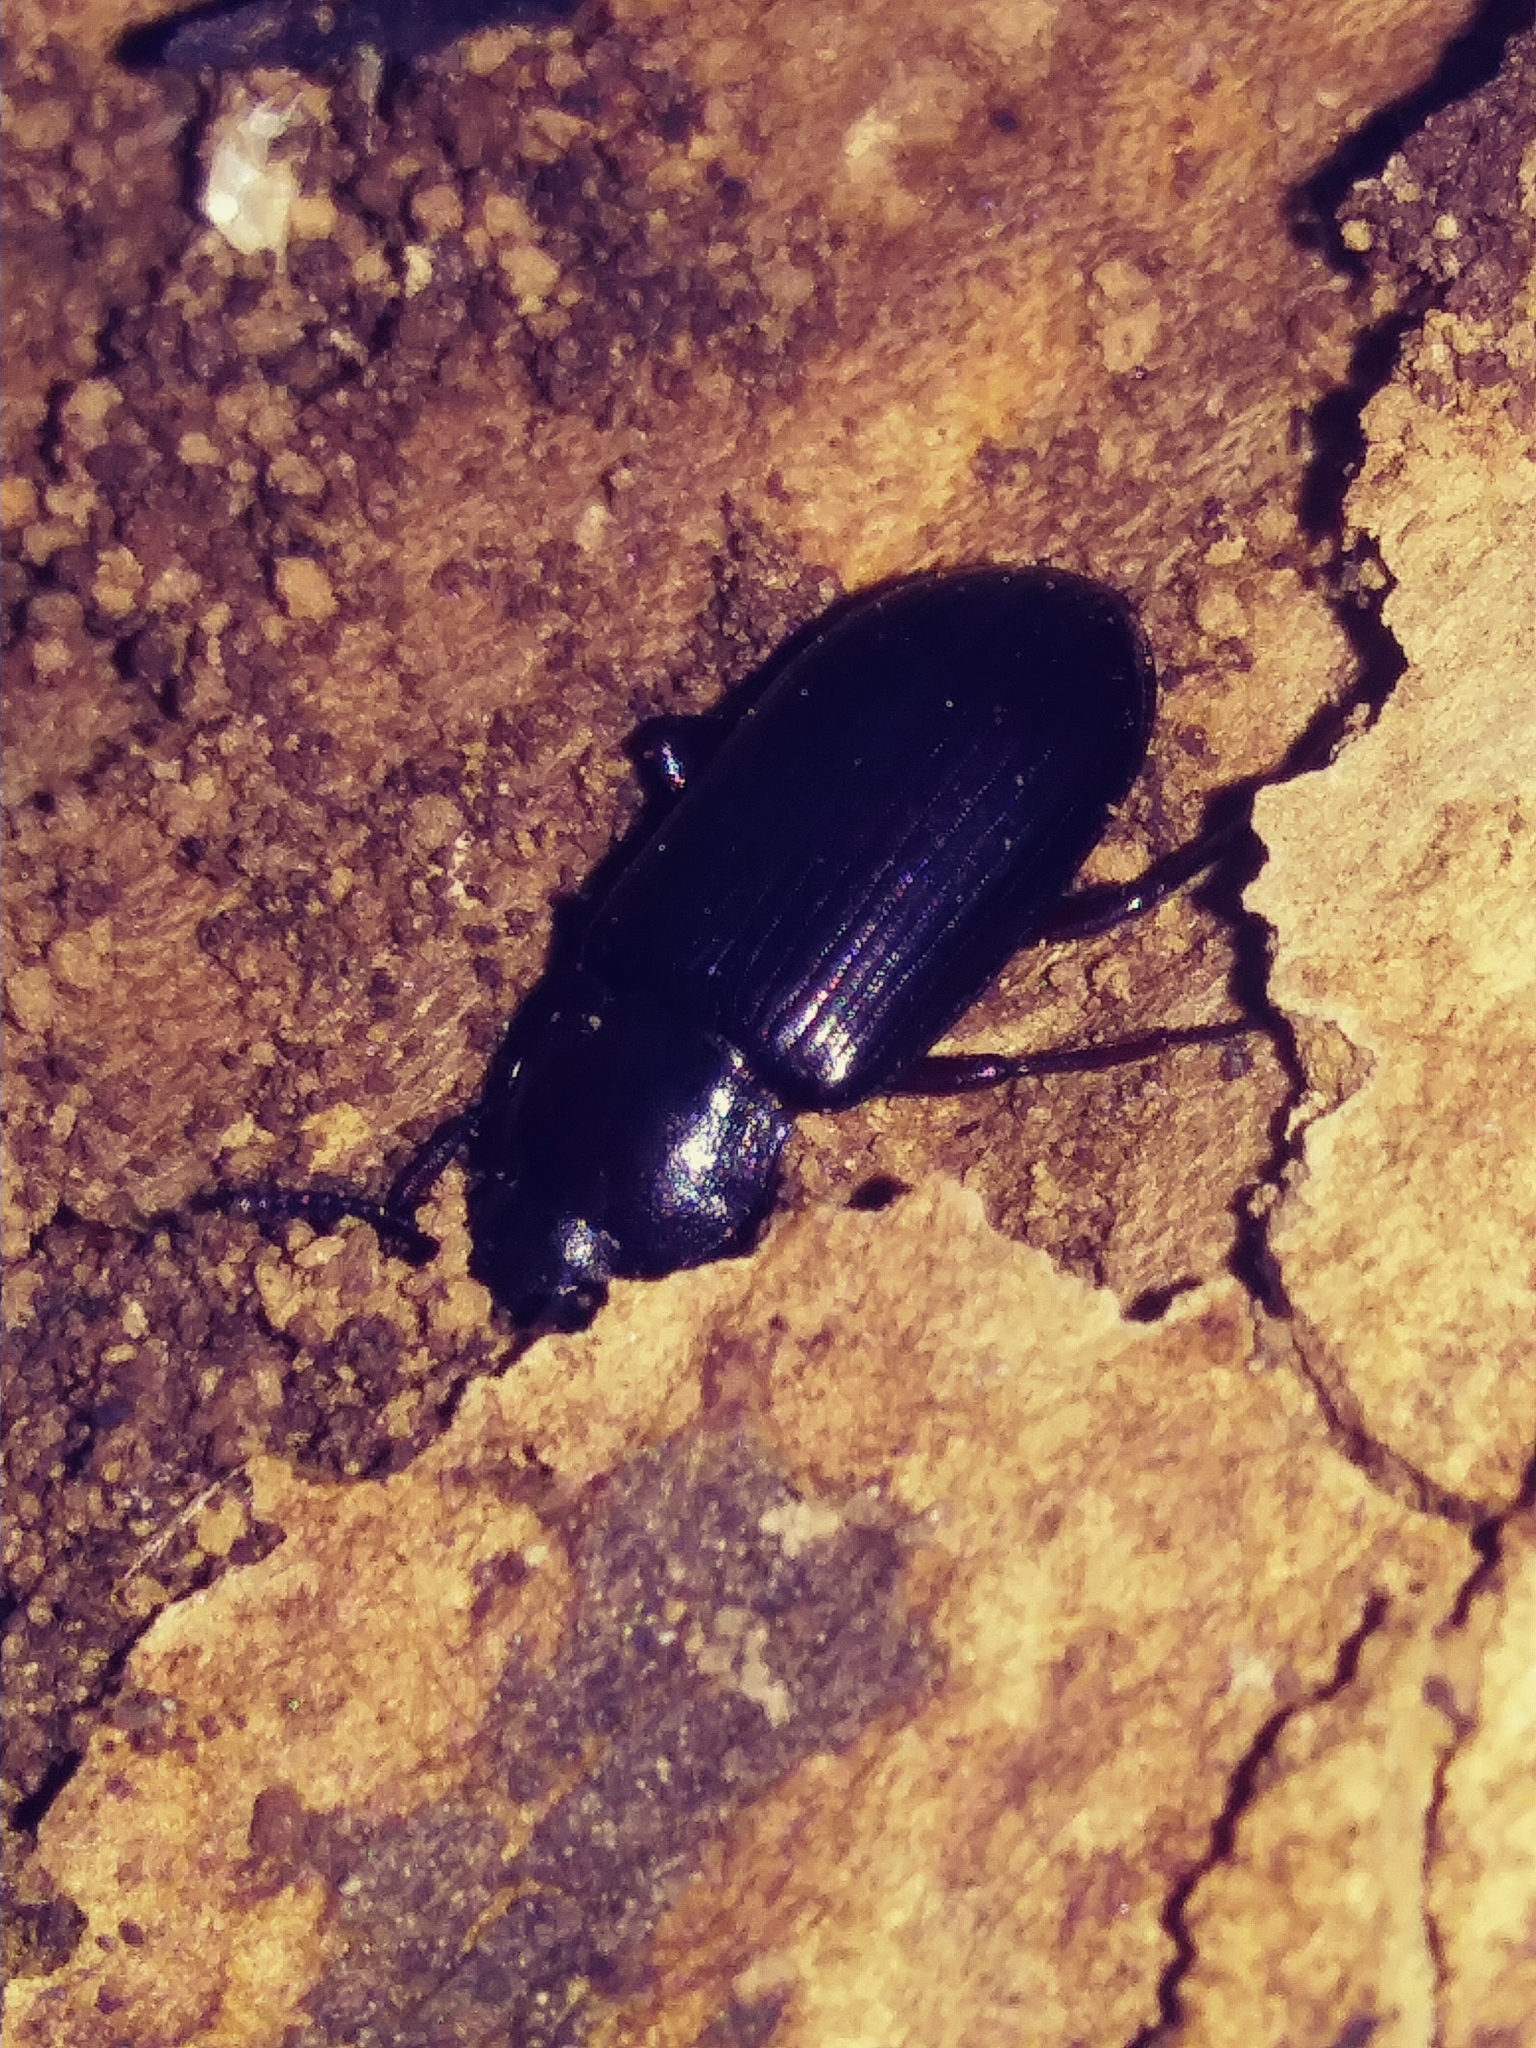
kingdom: Animalia
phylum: Arthropoda
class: Insecta
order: Coleoptera
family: Tenebrionidae
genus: Neatus
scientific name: Neatus tenebrioides
